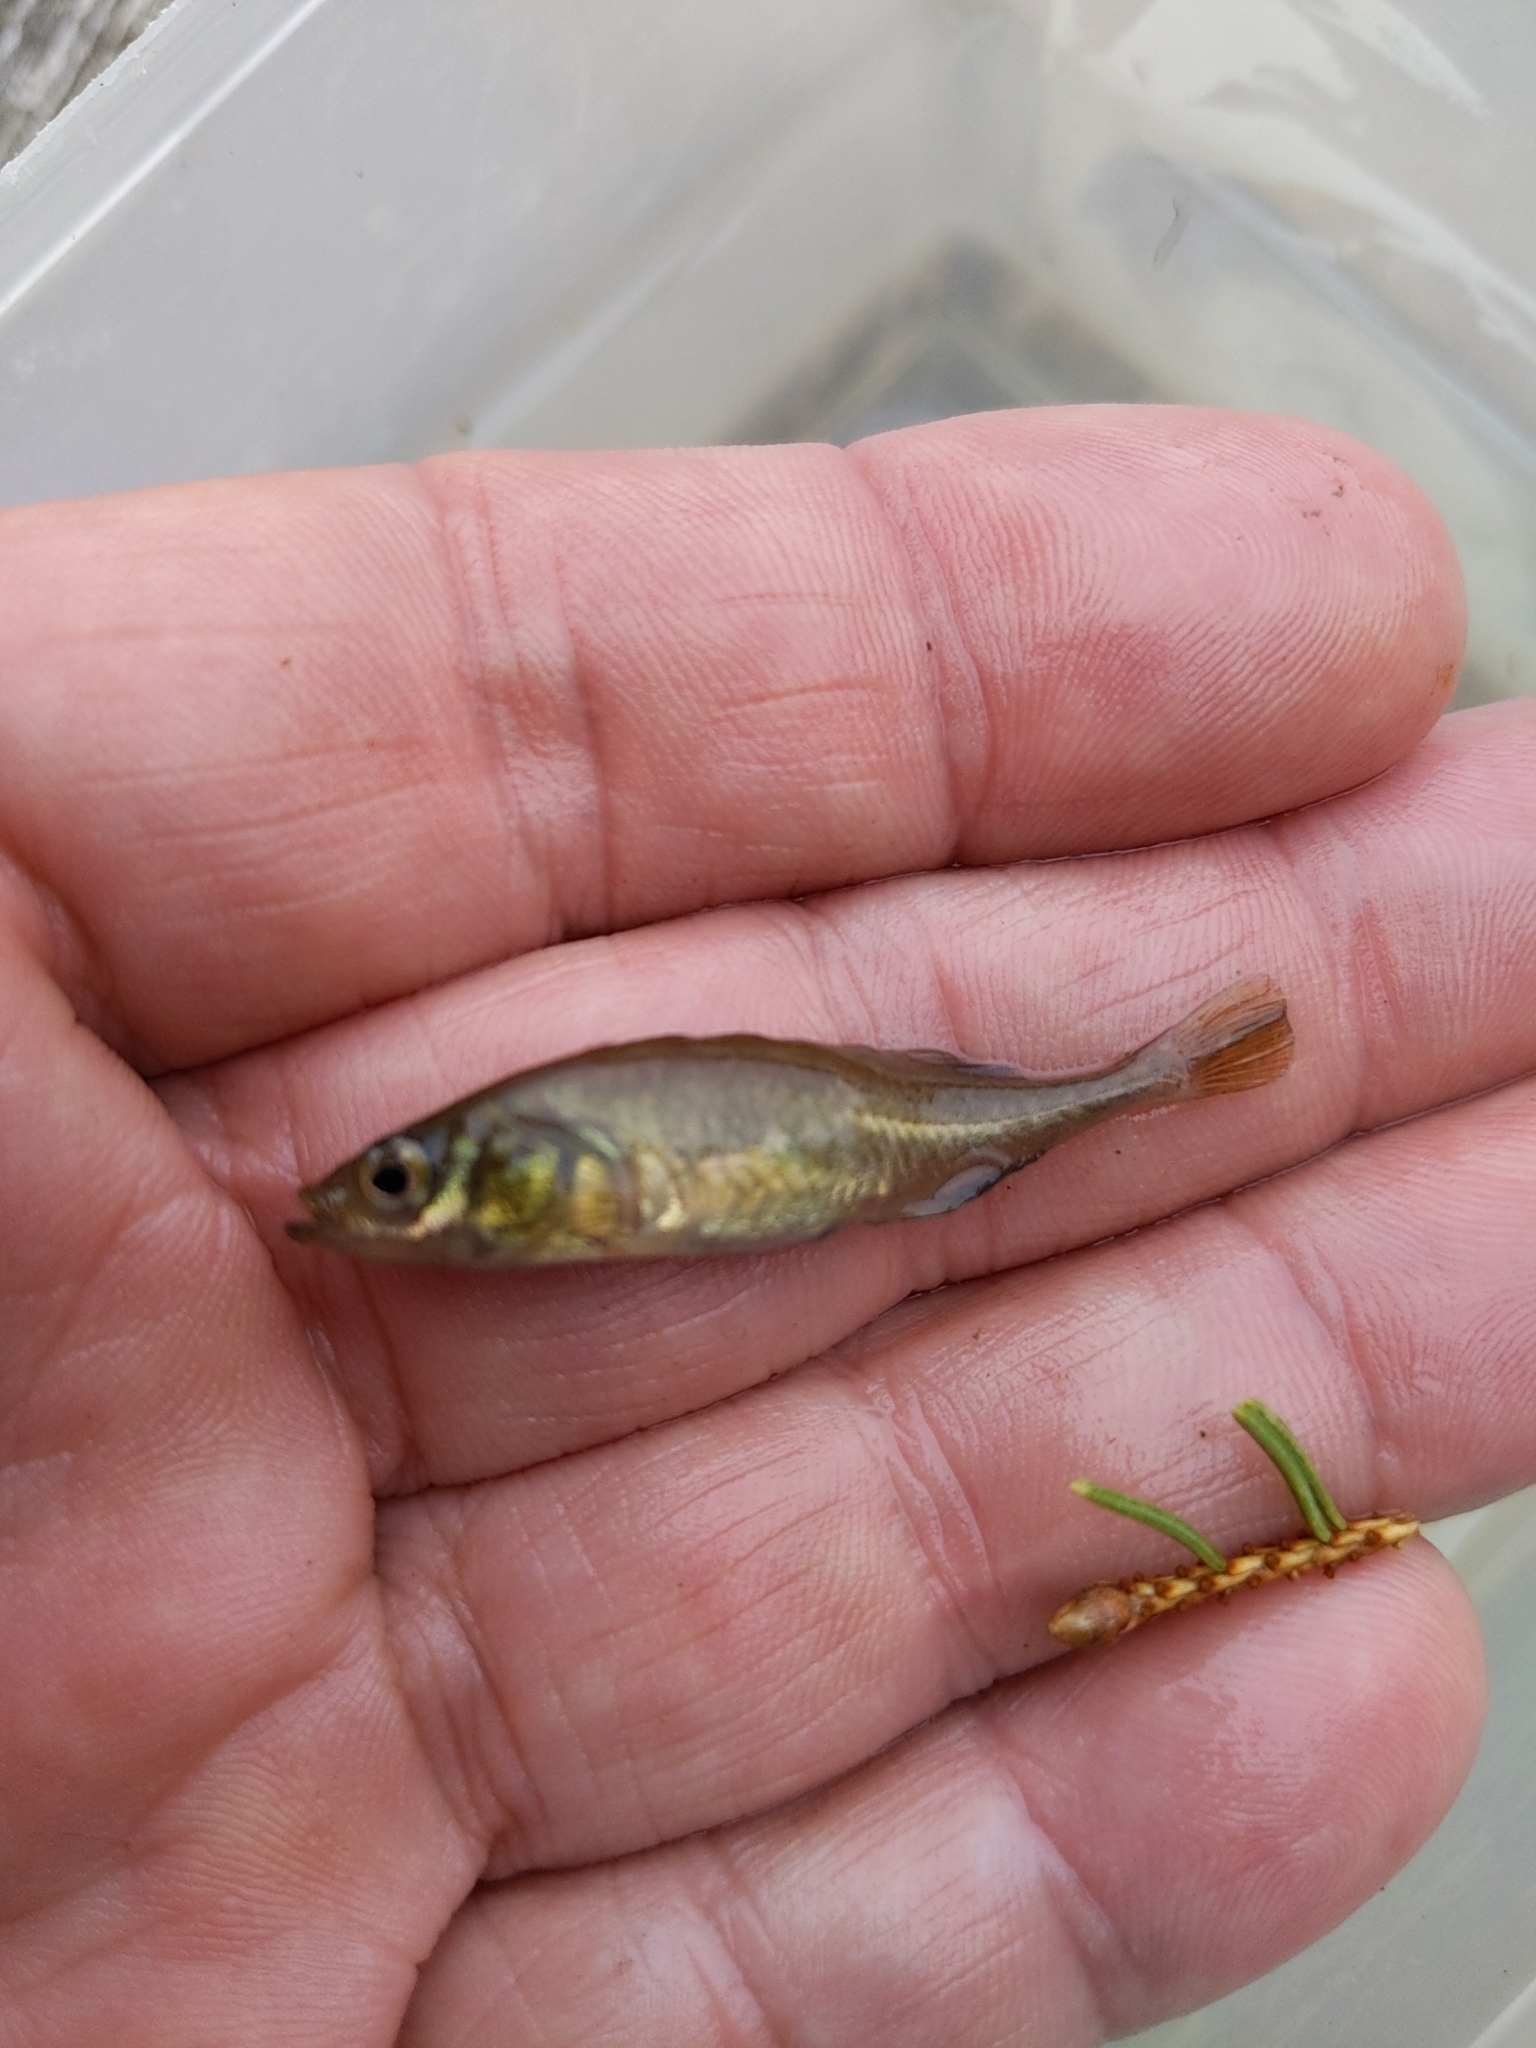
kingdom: Animalia
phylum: Chordata
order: Gasterosteiformes
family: Gasterosteidae
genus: Culaea
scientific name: Culaea inconstans
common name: Brook stickleback
